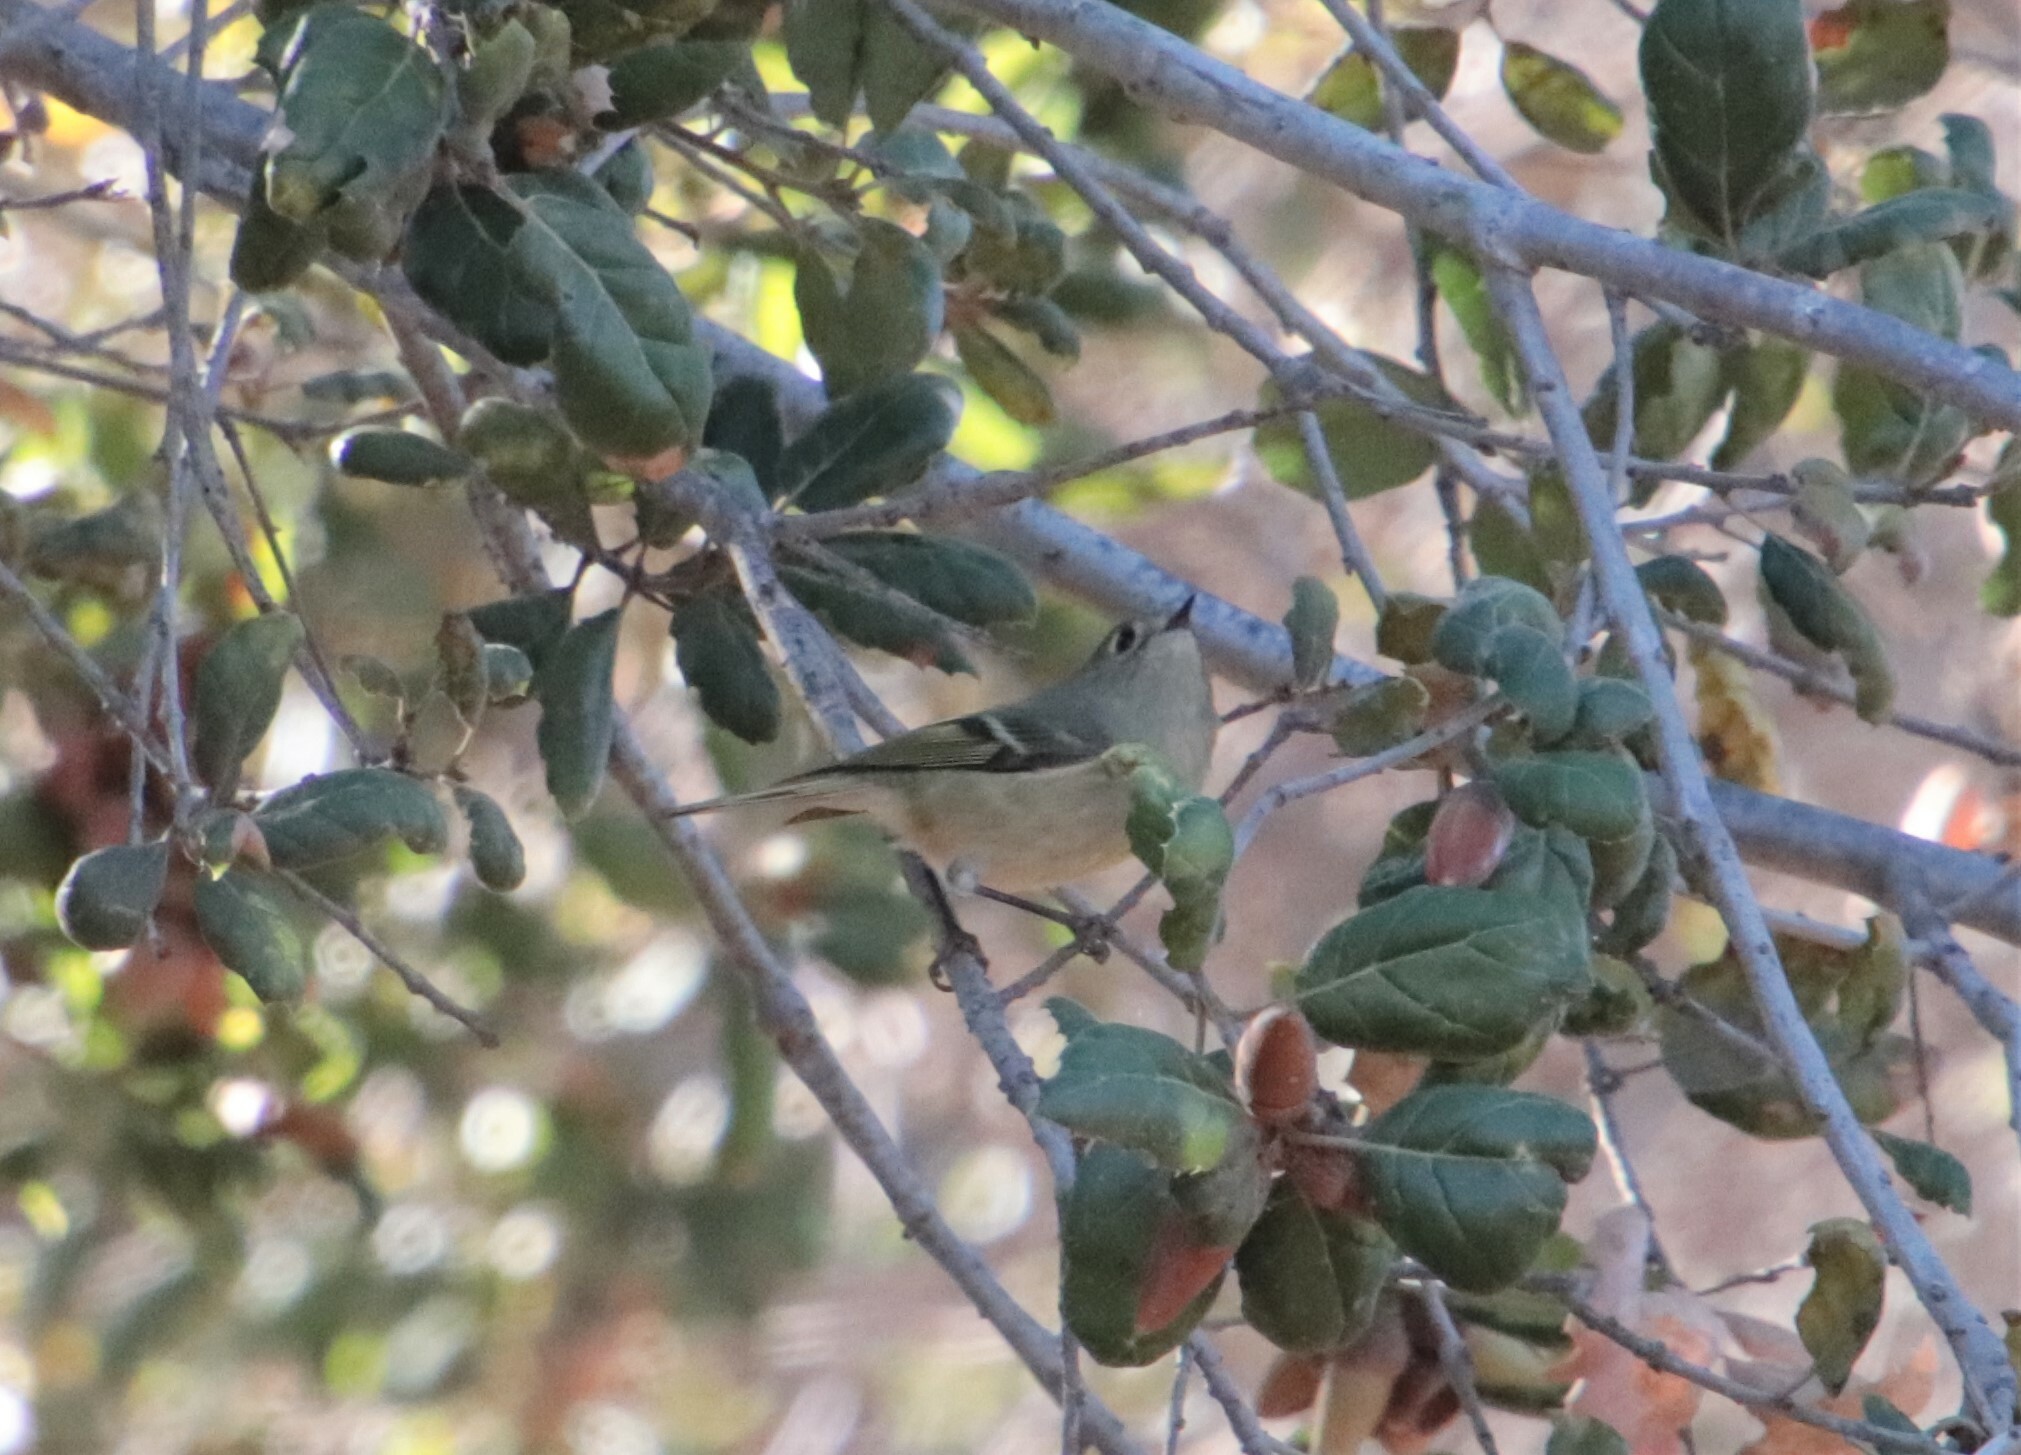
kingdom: Animalia
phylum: Chordata
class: Aves
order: Passeriformes
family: Regulidae
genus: Regulus
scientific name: Regulus calendula
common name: Ruby-crowned kinglet
